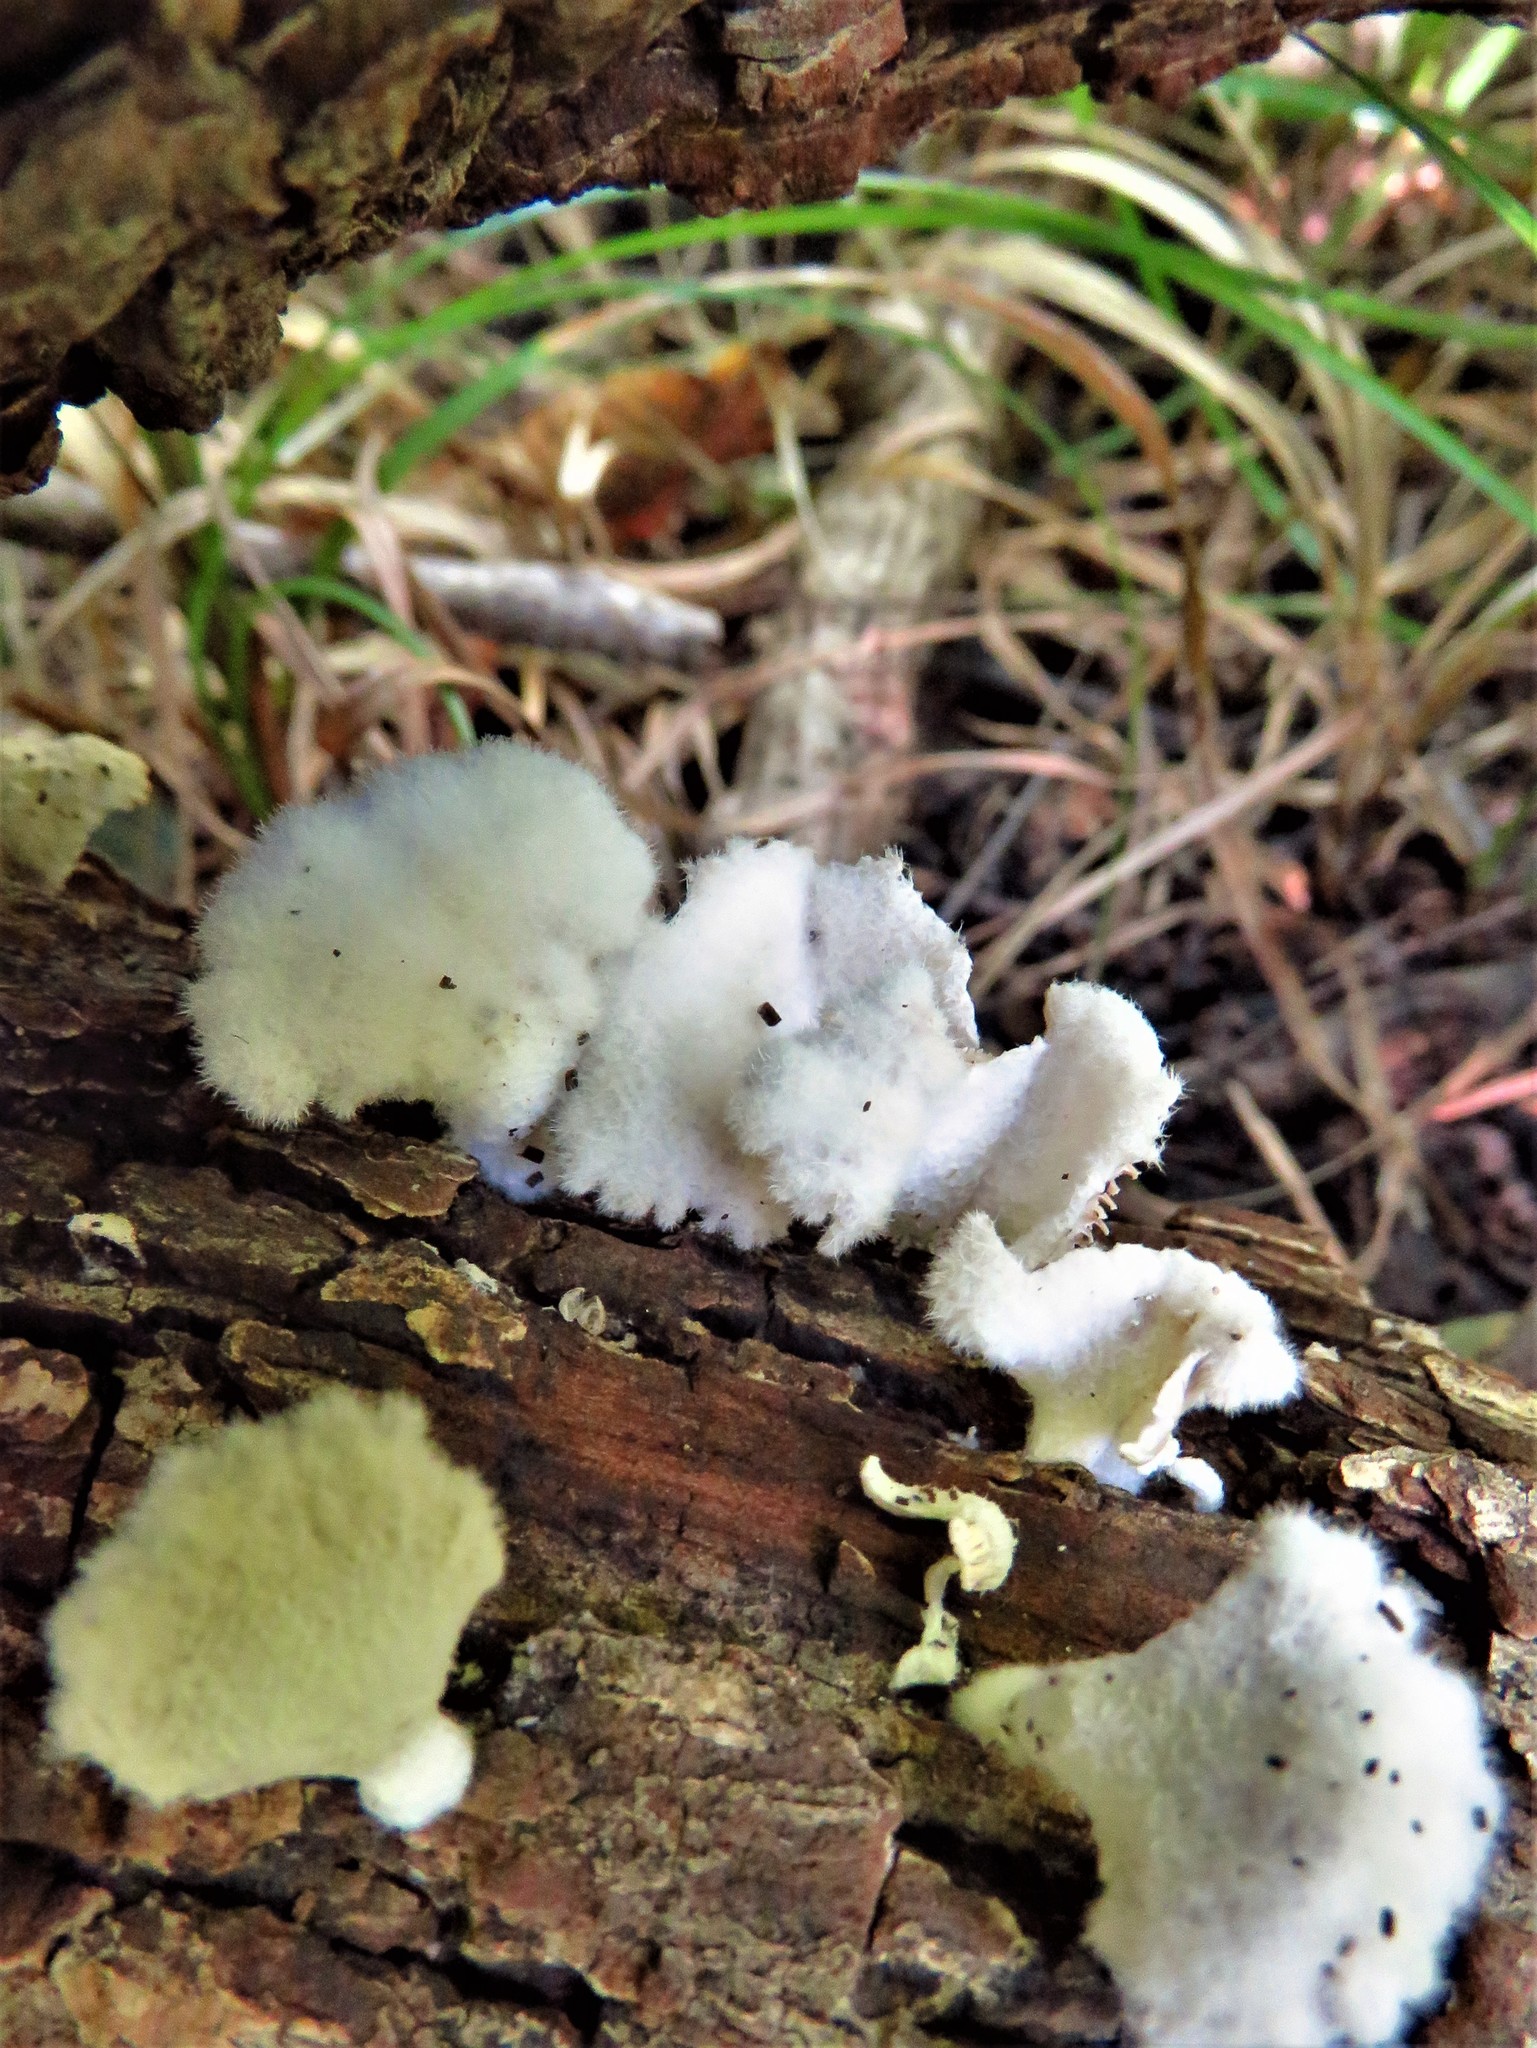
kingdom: Fungi
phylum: Basidiomycota
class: Agaricomycetes
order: Agaricales
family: Schizophyllaceae
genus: Schizophyllum
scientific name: Schizophyllum commune
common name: Common porecrust
